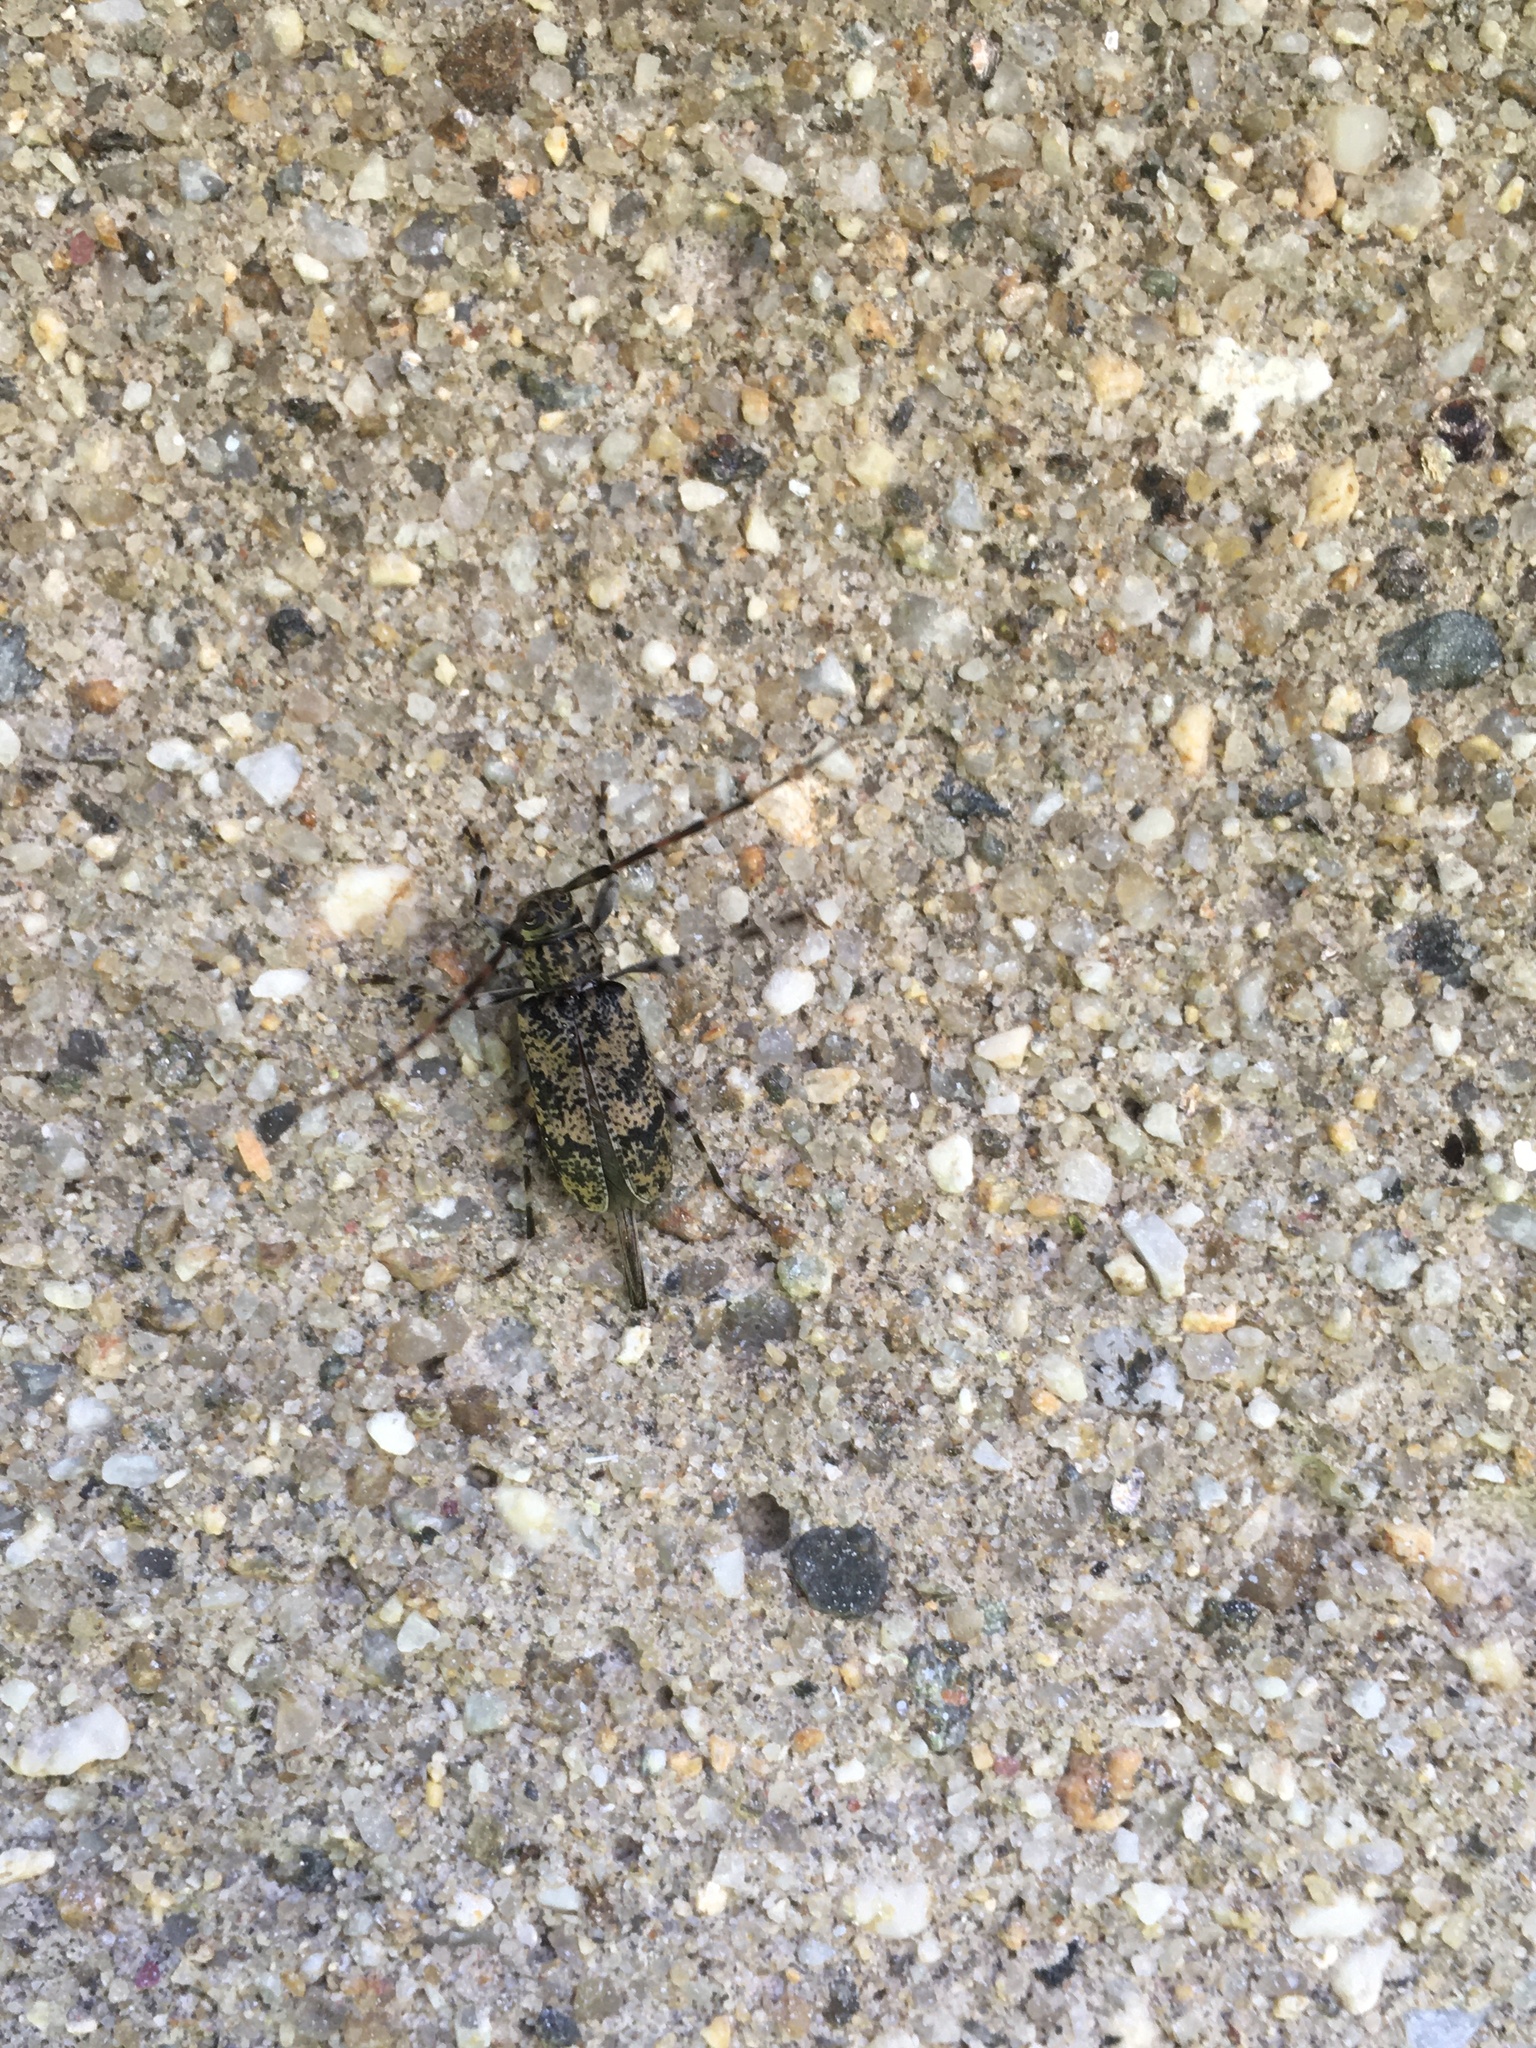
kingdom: Animalia
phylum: Arthropoda
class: Insecta
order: Coleoptera
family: Cerambycidae
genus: Graphisurus
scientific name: Graphisurus fasciatus
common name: Banded graphisurus
